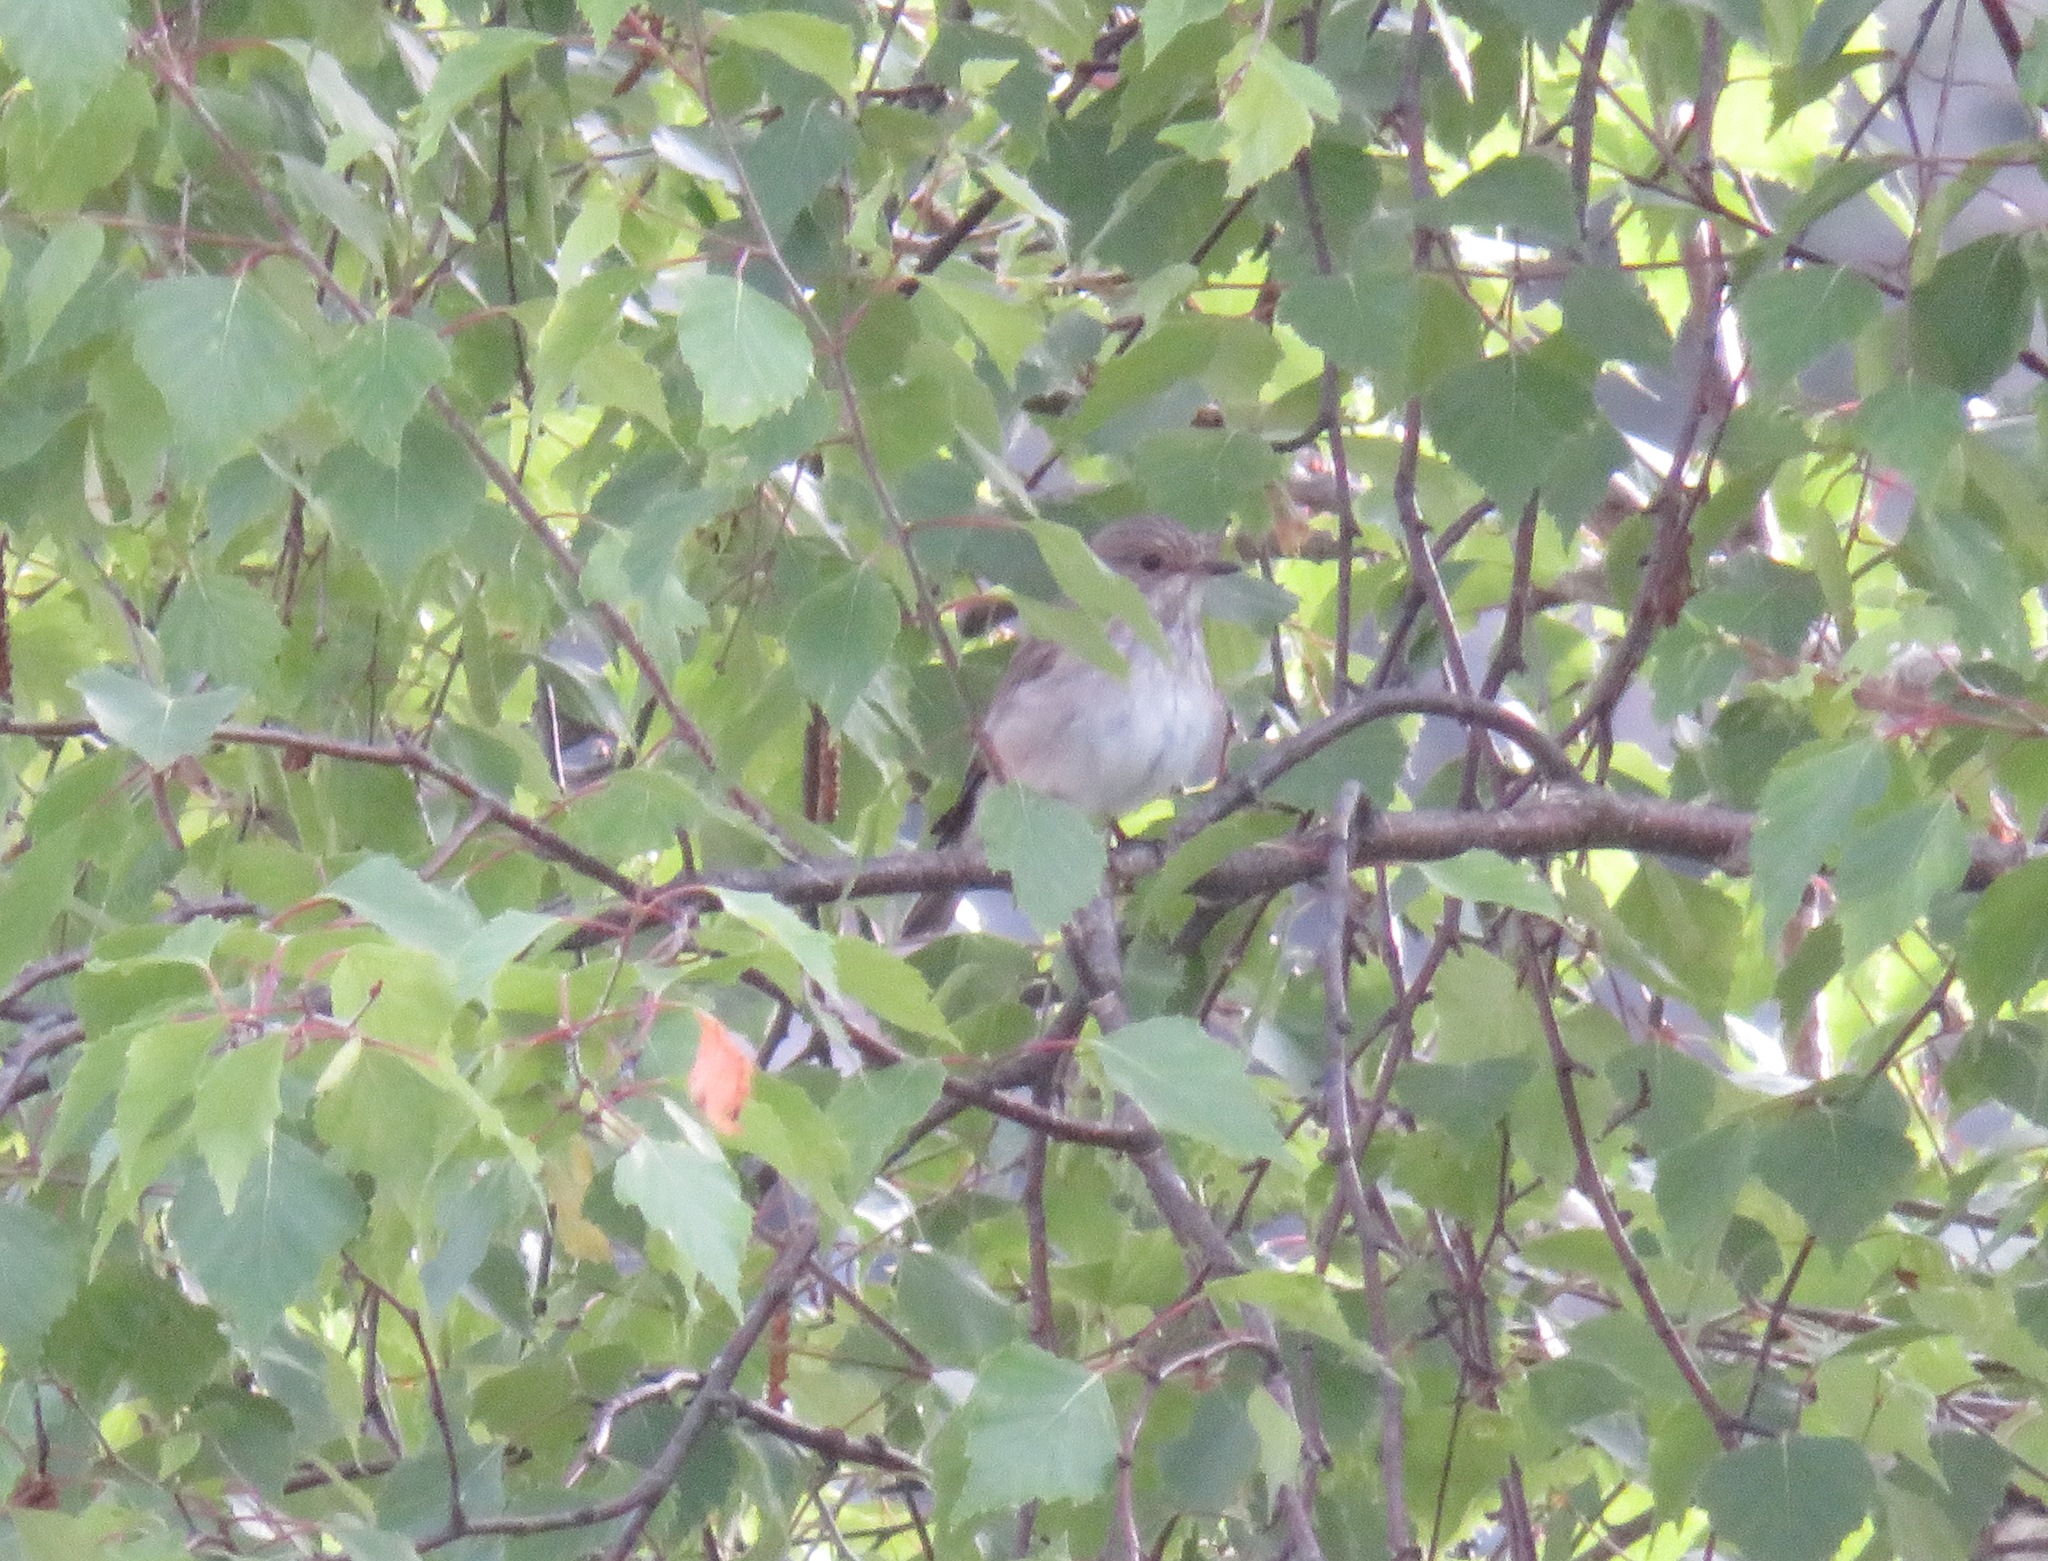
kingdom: Animalia
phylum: Chordata
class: Aves
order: Passeriformes
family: Muscicapidae
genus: Muscicapa
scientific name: Muscicapa striata
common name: Spotted flycatcher
